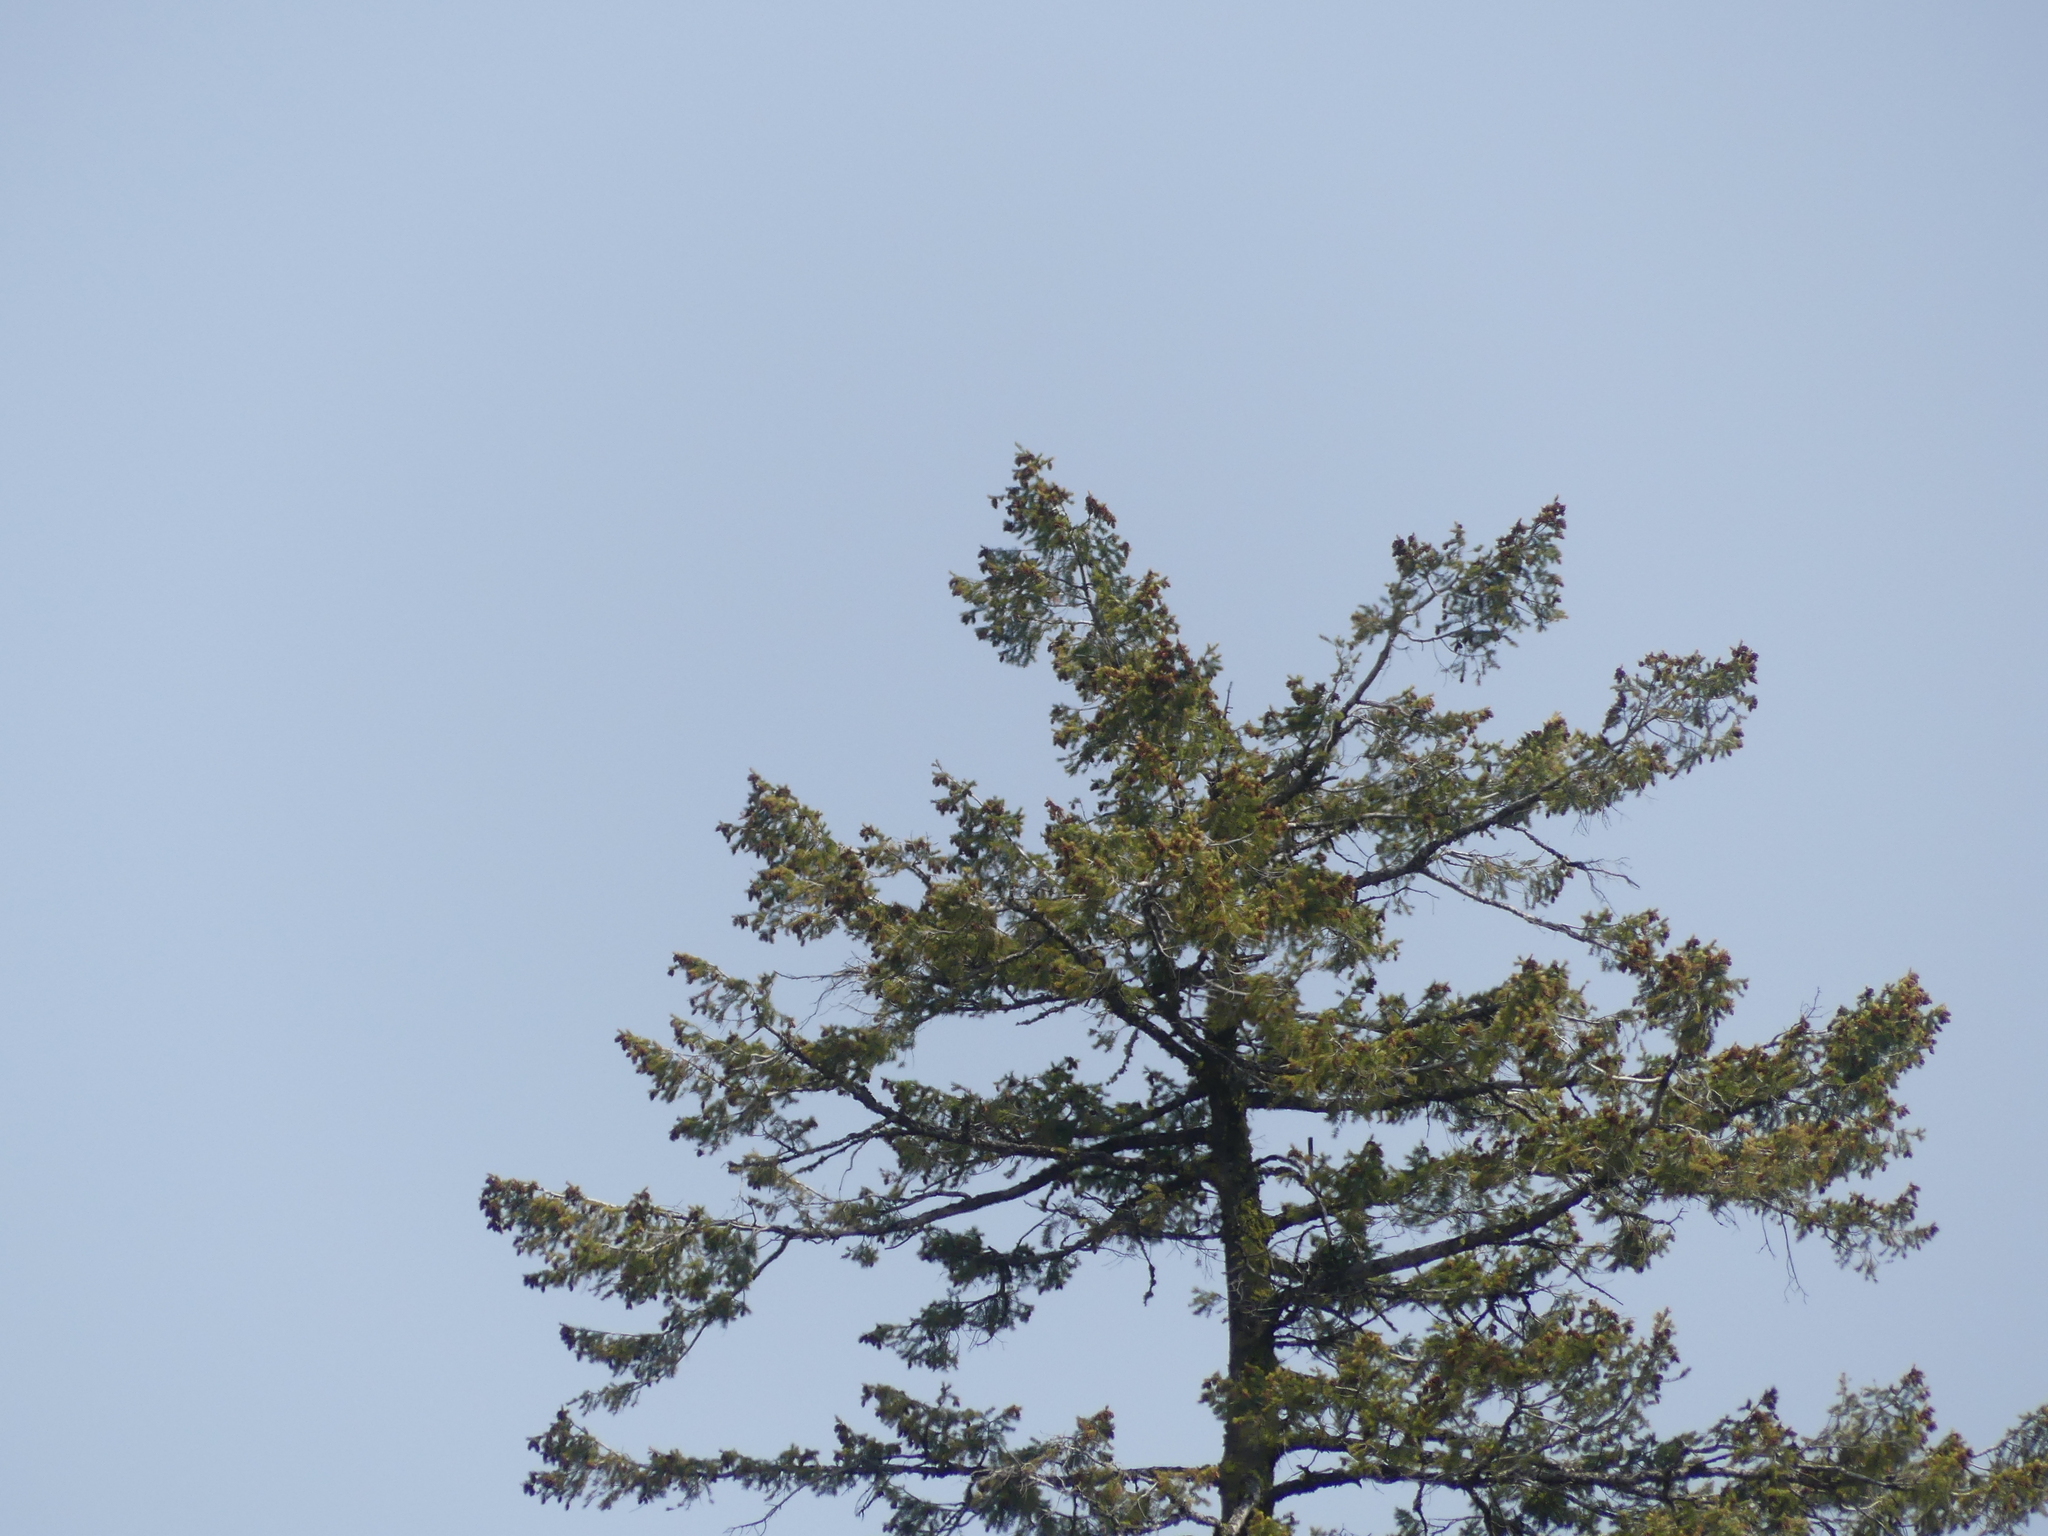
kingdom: Plantae
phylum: Tracheophyta
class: Pinopsida
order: Pinales
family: Pinaceae
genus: Pseudotsuga
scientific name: Pseudotsuga menziesii
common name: Douglas fir
